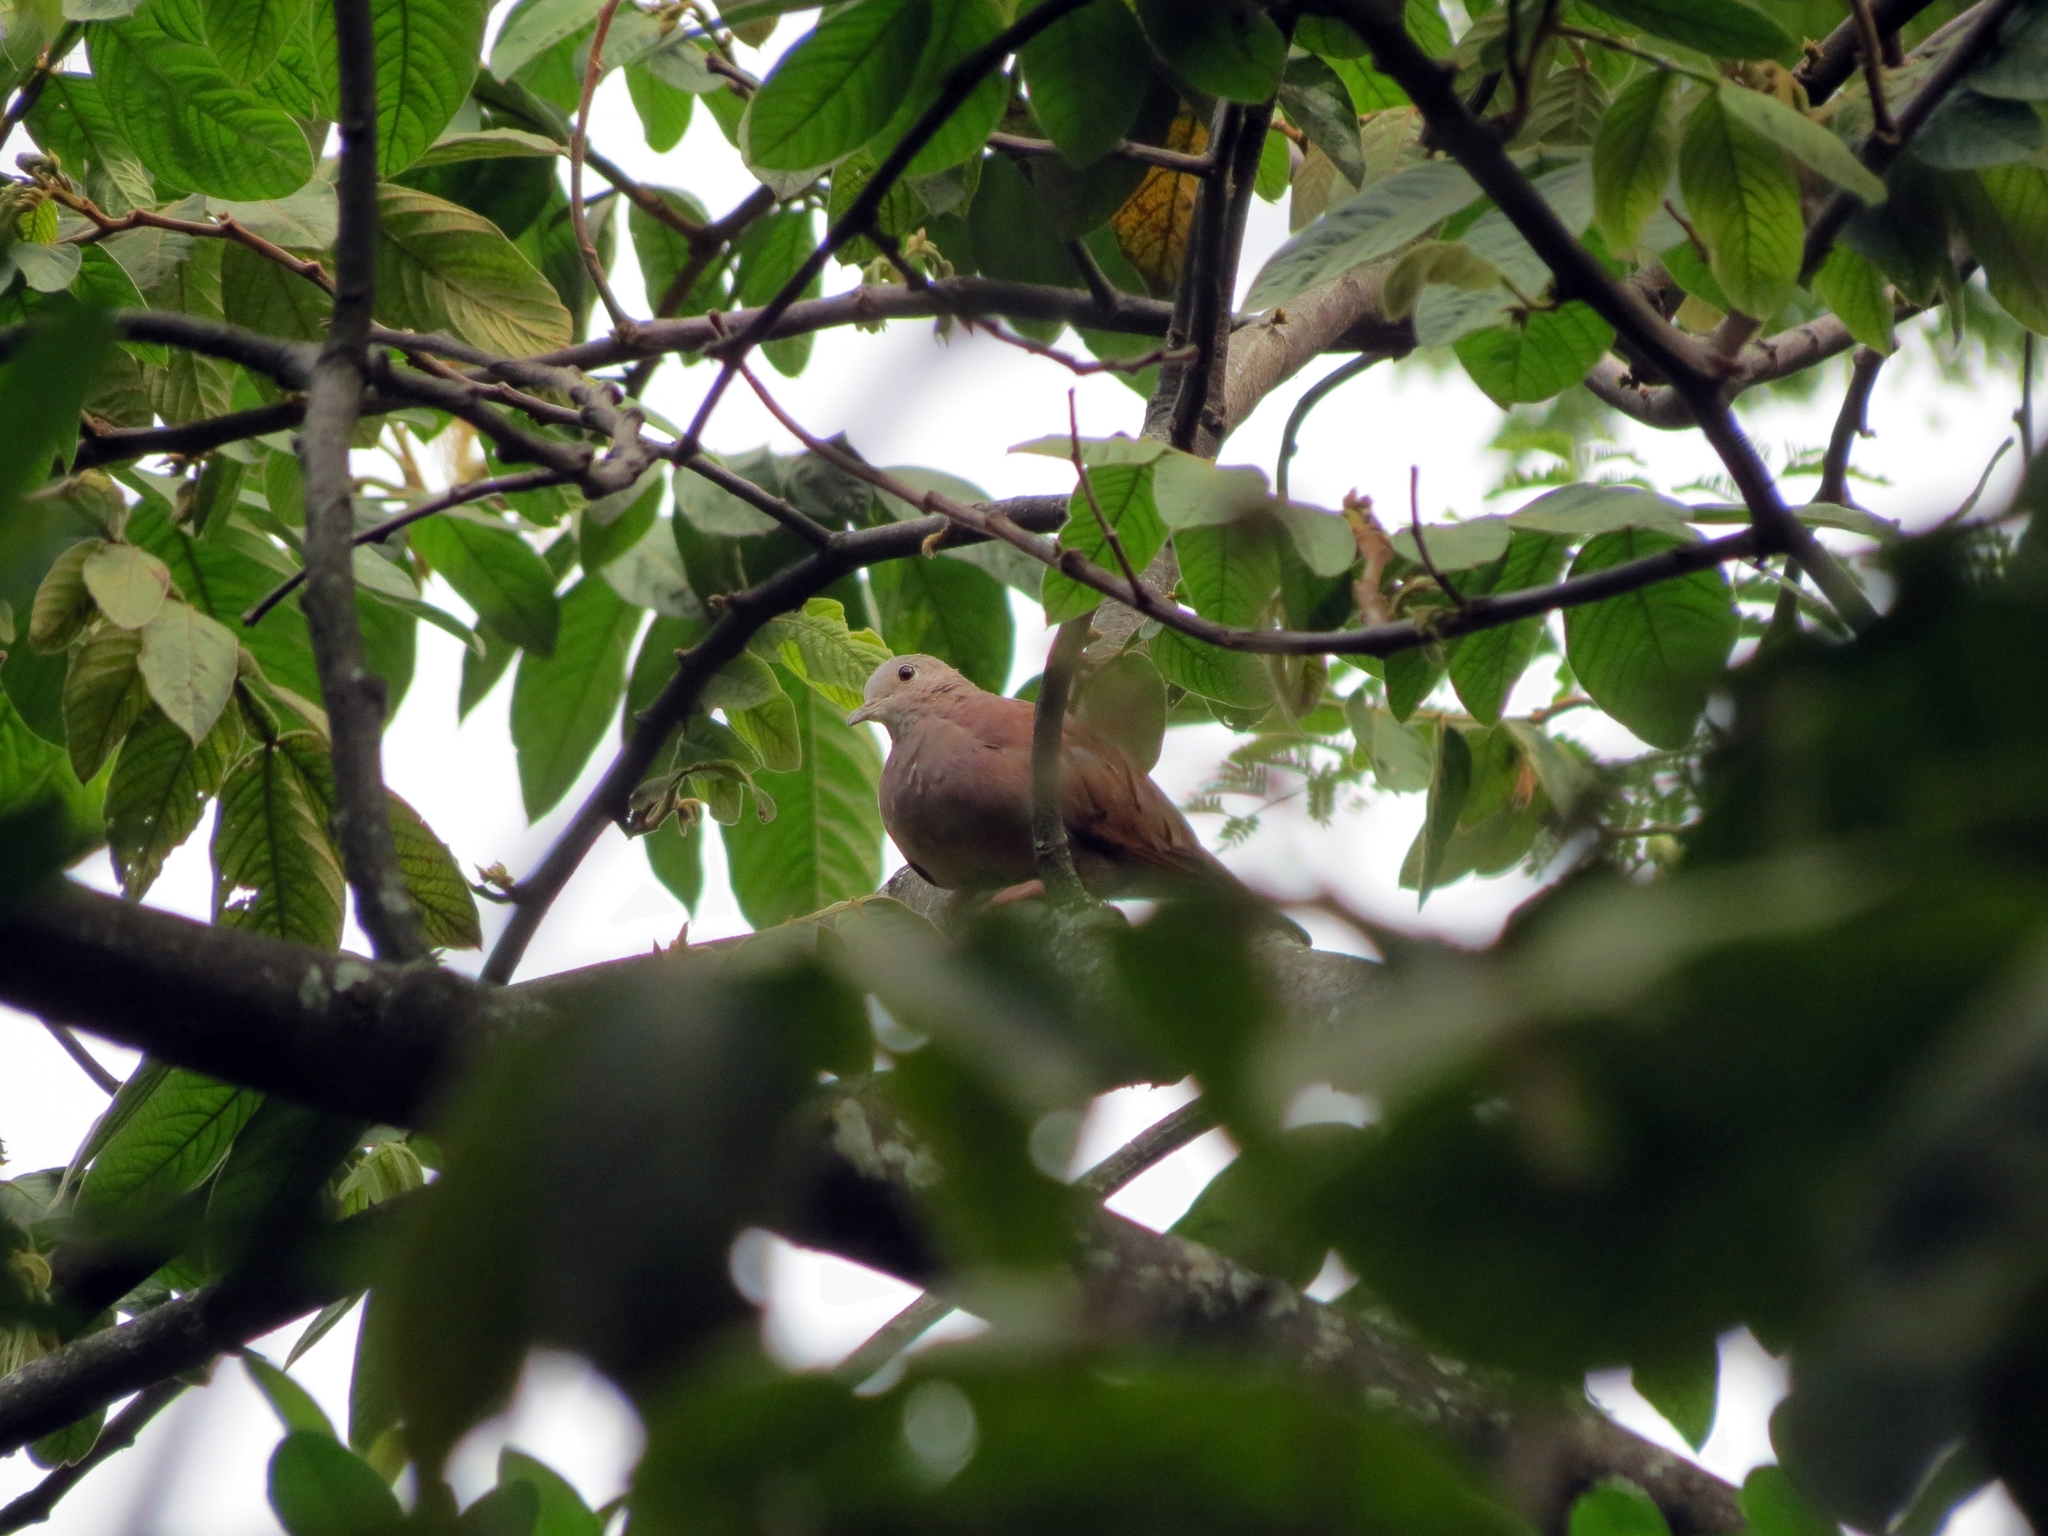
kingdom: Animalia
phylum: Chordata
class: Aves
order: Columbiformes
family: Columbidae
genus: Columbina
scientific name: Columbina talpacoti
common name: Ruddy ground dove
